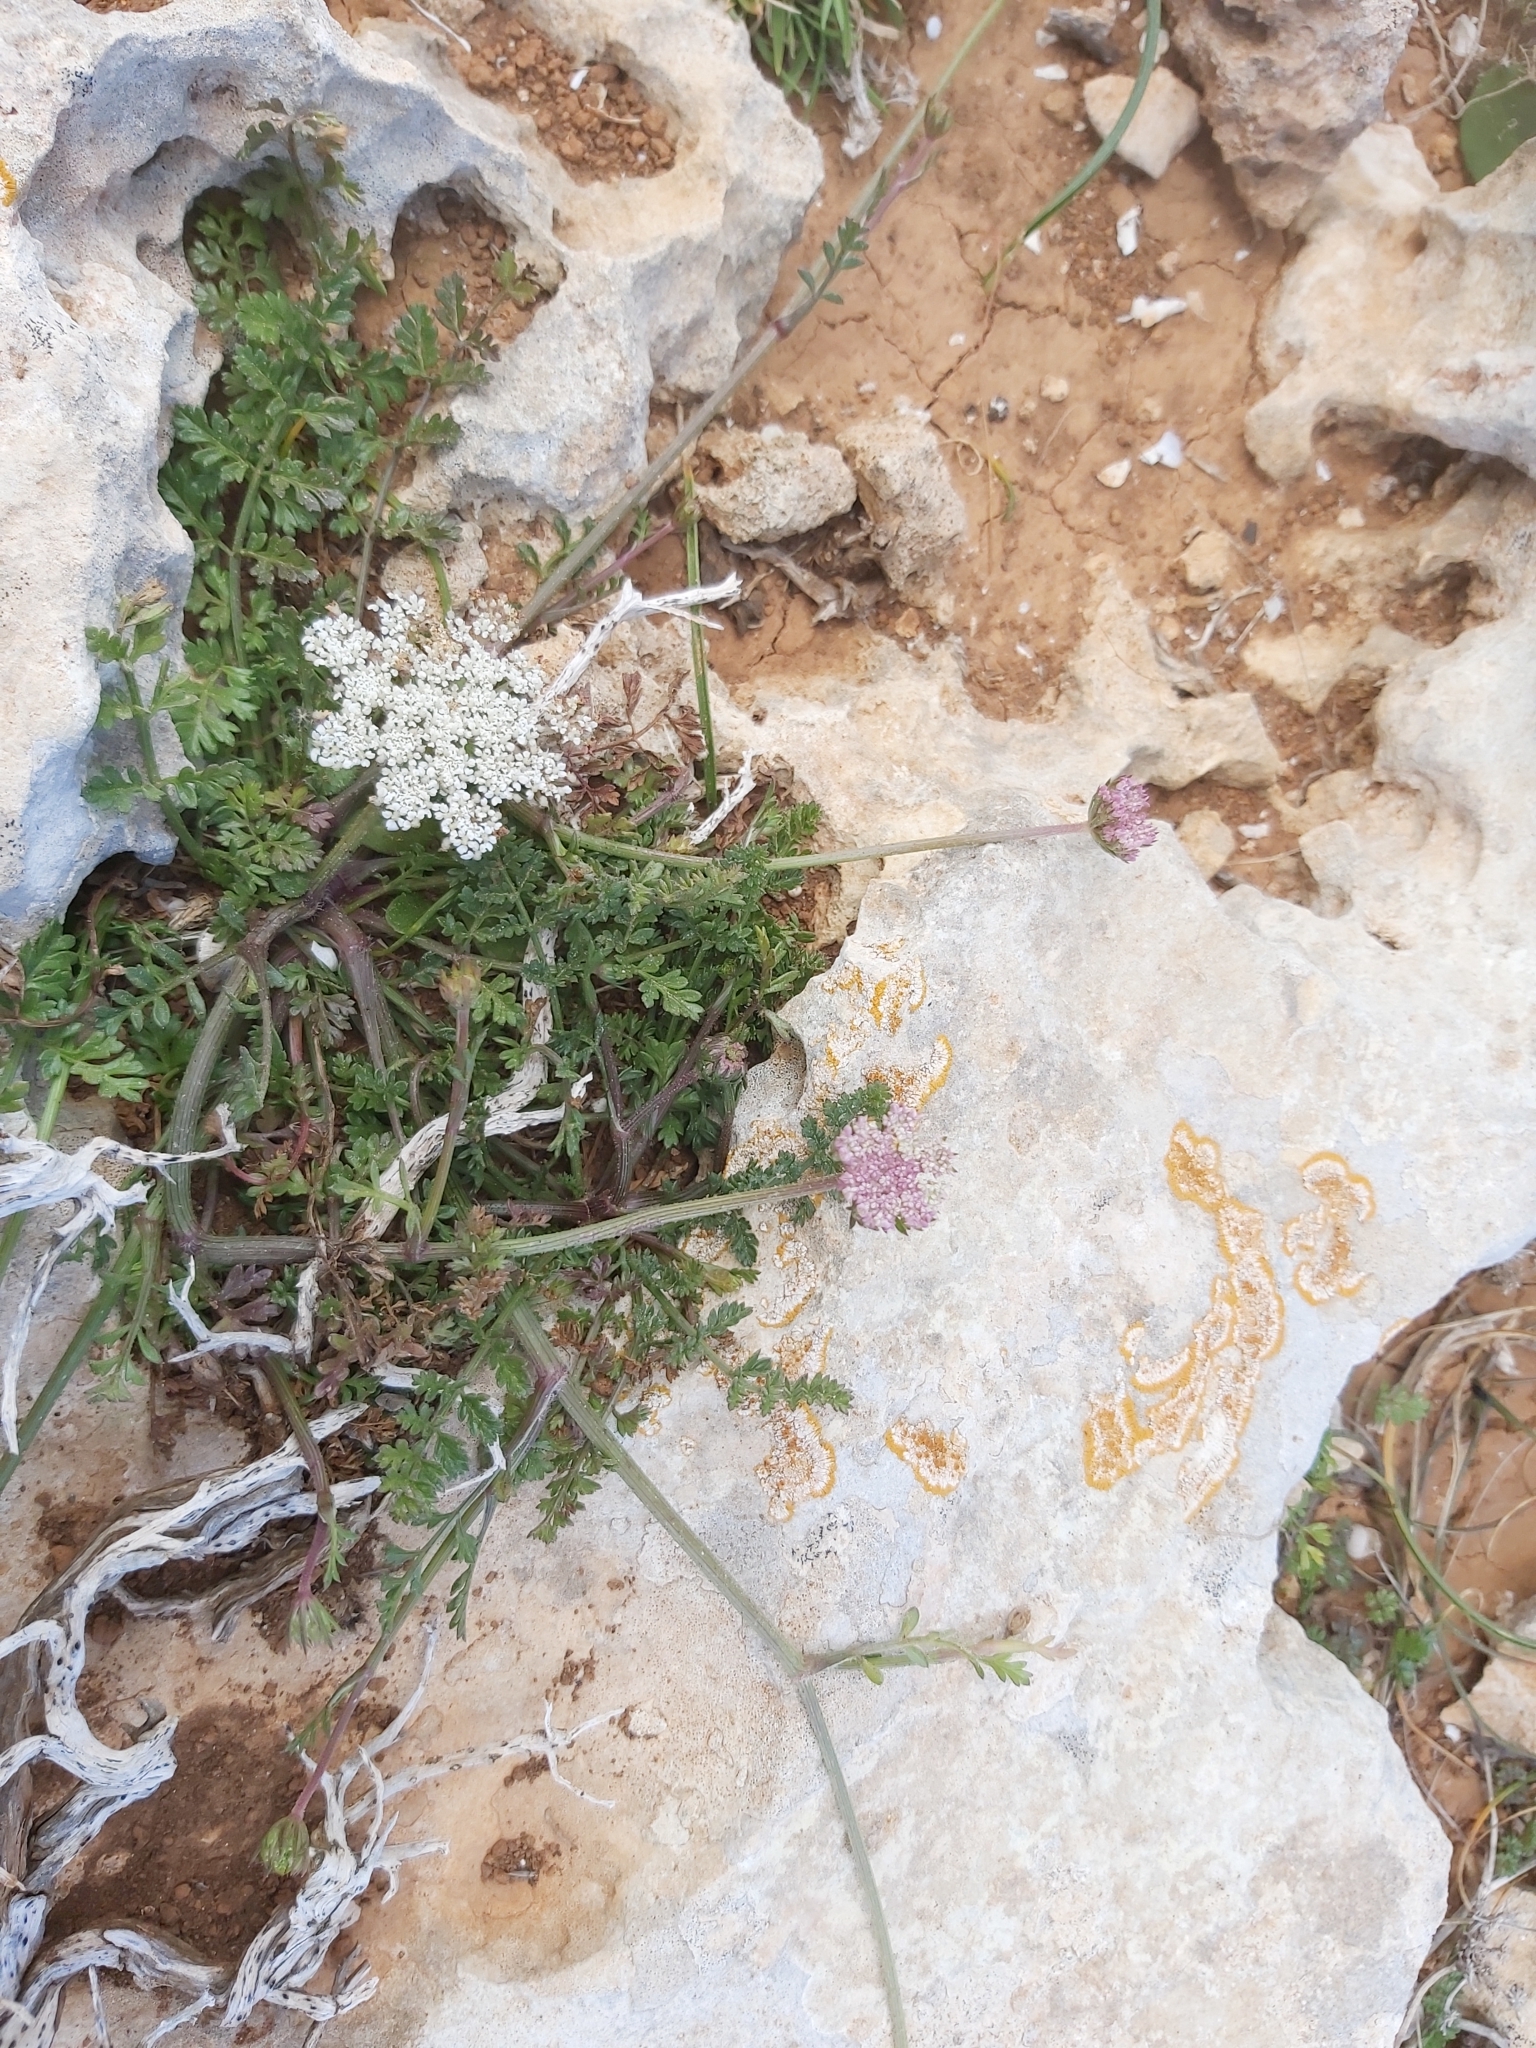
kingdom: Plantae
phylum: Tracheophyta
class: Magnoliopsida
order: Apiales
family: Apiaceae
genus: Daucus
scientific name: Daucus carota
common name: Wild carrot
